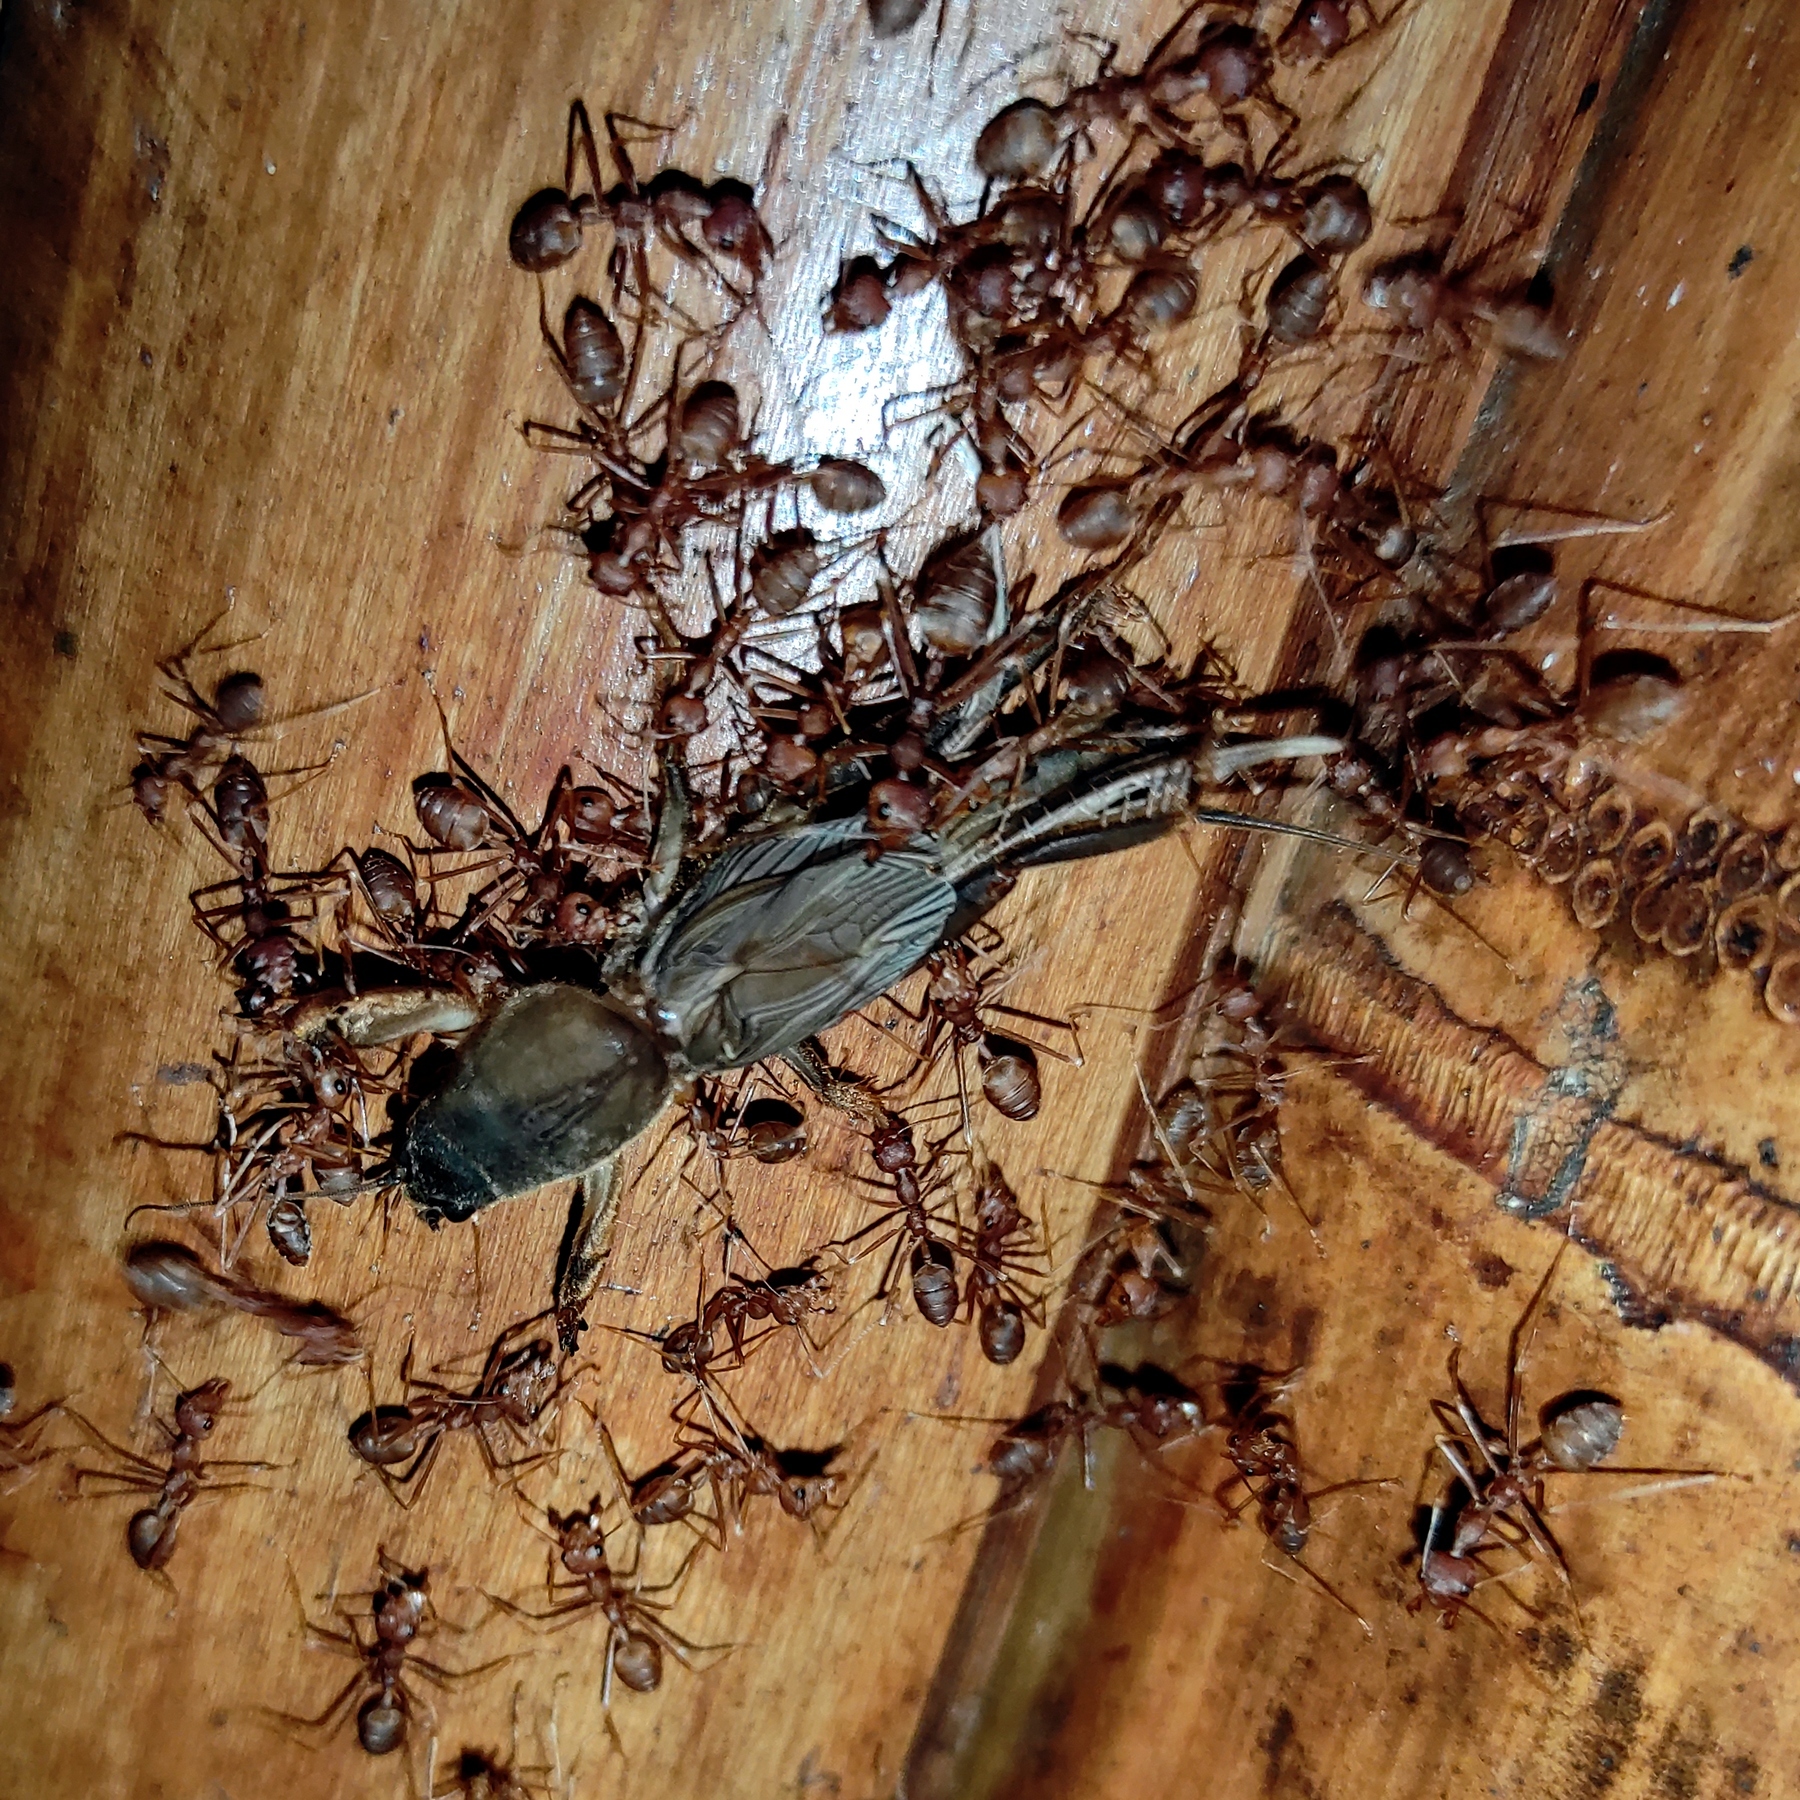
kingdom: Animalia
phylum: Arthropoda
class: Insecta
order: Orthoptera
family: Gryllotalpidae
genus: Gryllotalpa
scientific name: Gryllotalpa hirsuta
